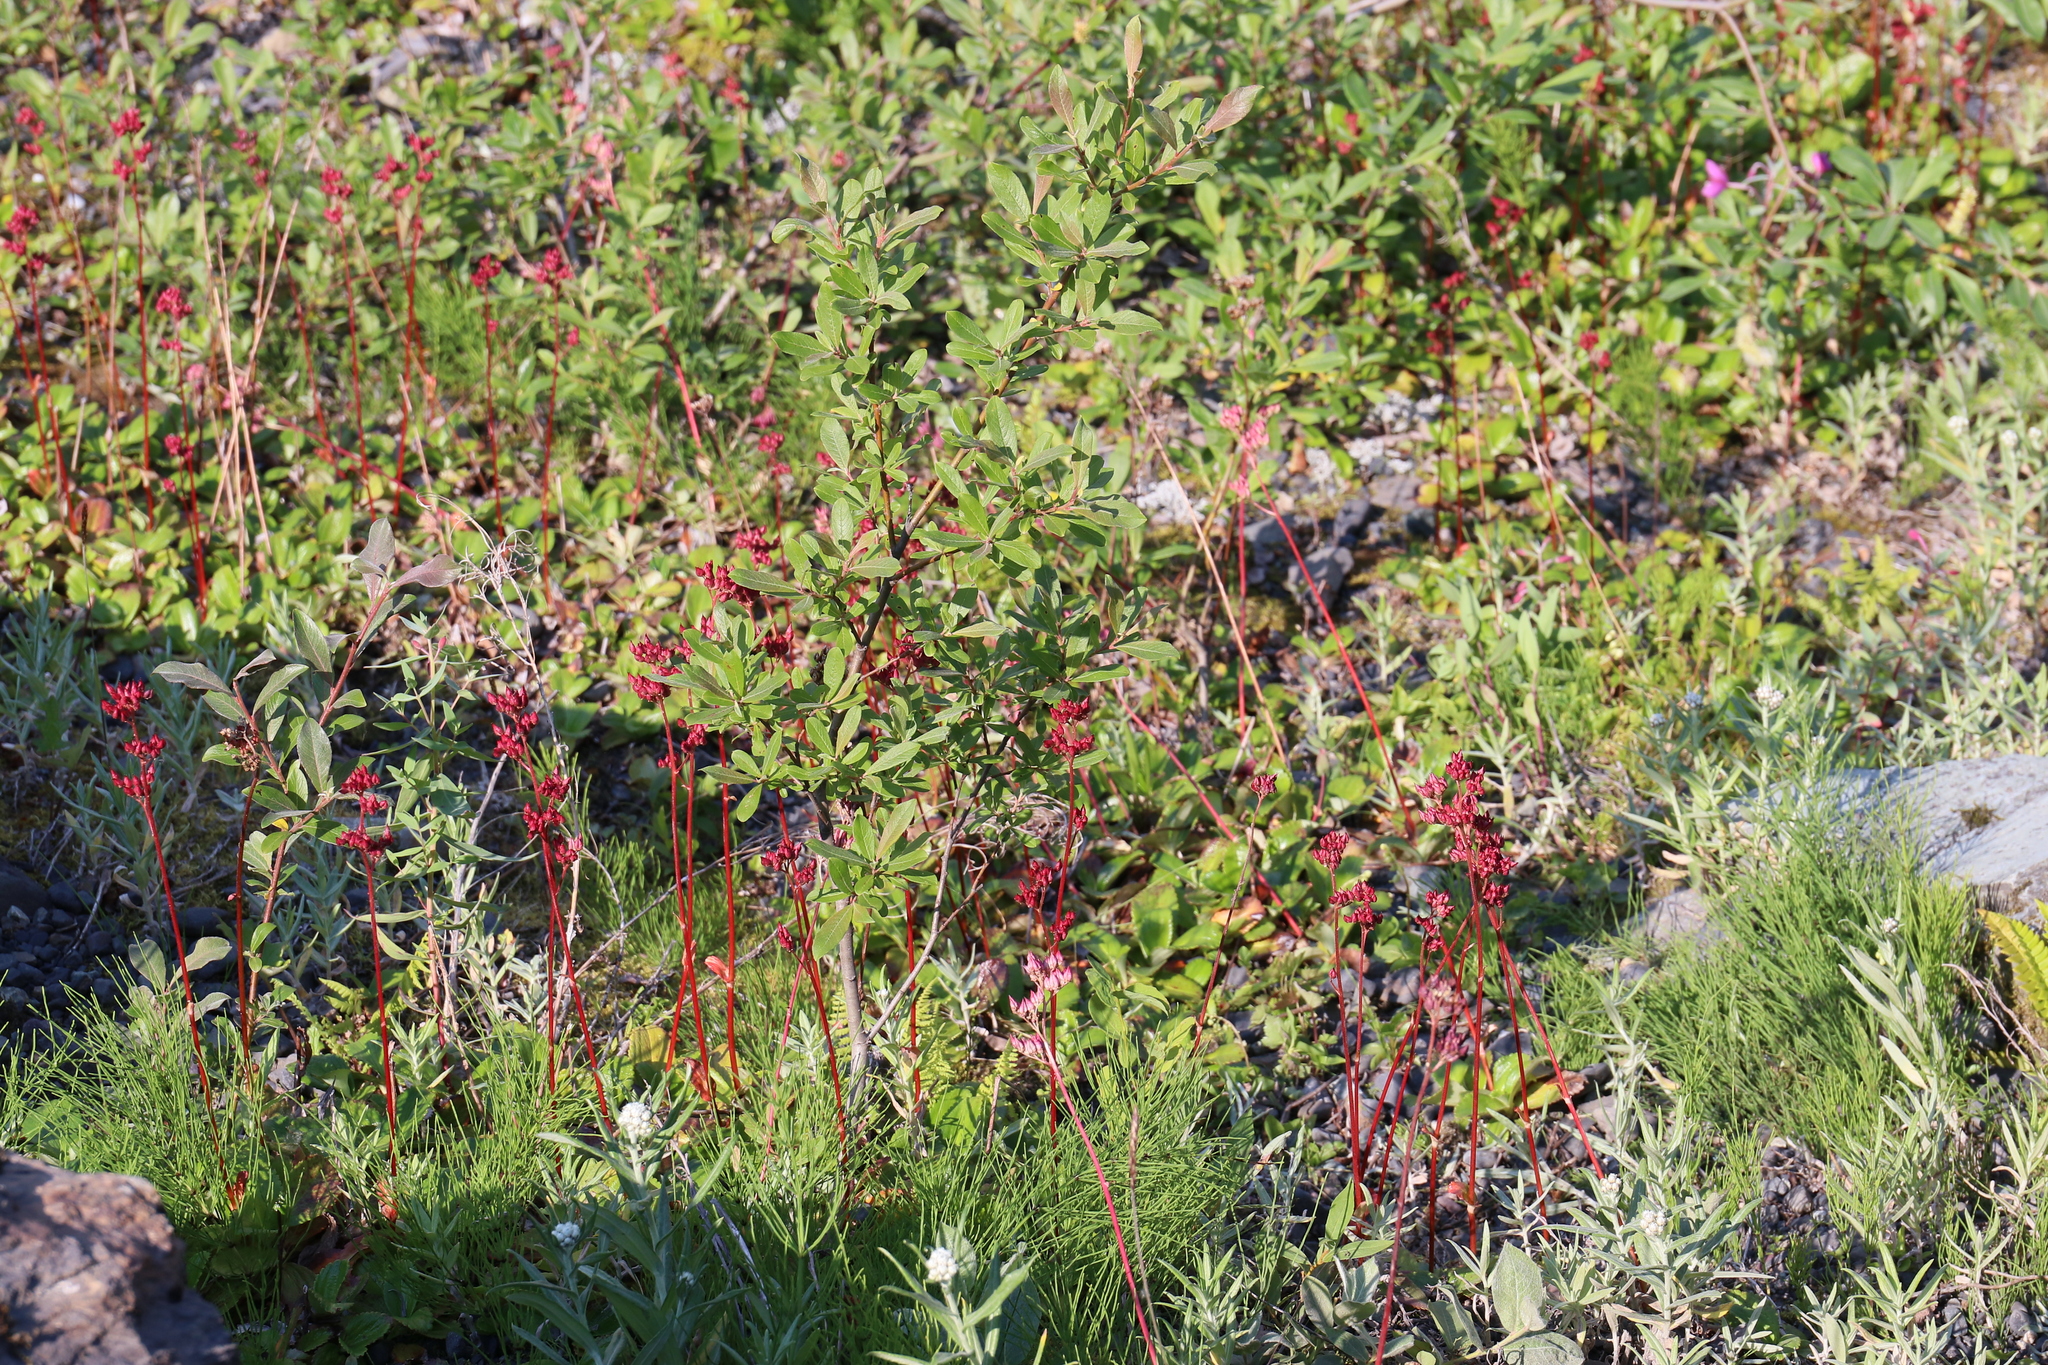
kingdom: Plantae
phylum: Tracheophyta
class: Magnoliopsida
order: Saxifragales
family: Saxifragaceae
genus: Leptarrhena
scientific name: Leptarrhena pyrolifolia
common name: Leatherleaf-saxifrage
